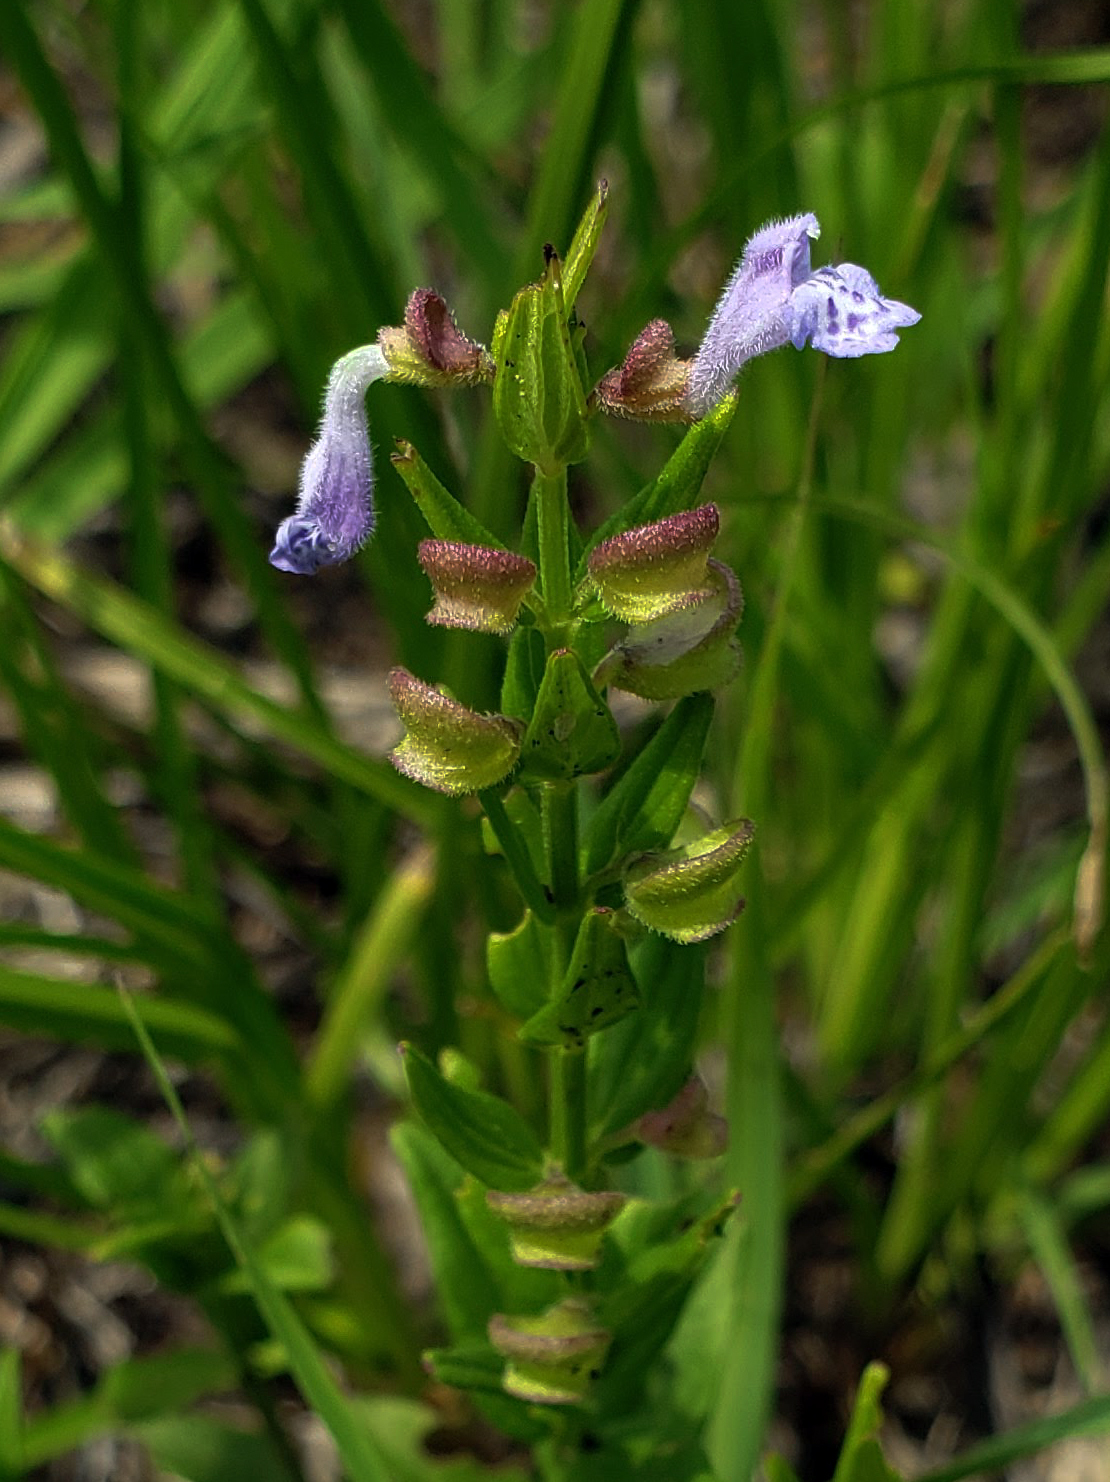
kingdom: Plantae
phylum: Tracheophyta
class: Magnoliopsida
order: Lamiales
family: Lamiaceae
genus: Scutellaria
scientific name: Scutellaria parvula
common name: Little scullcap
